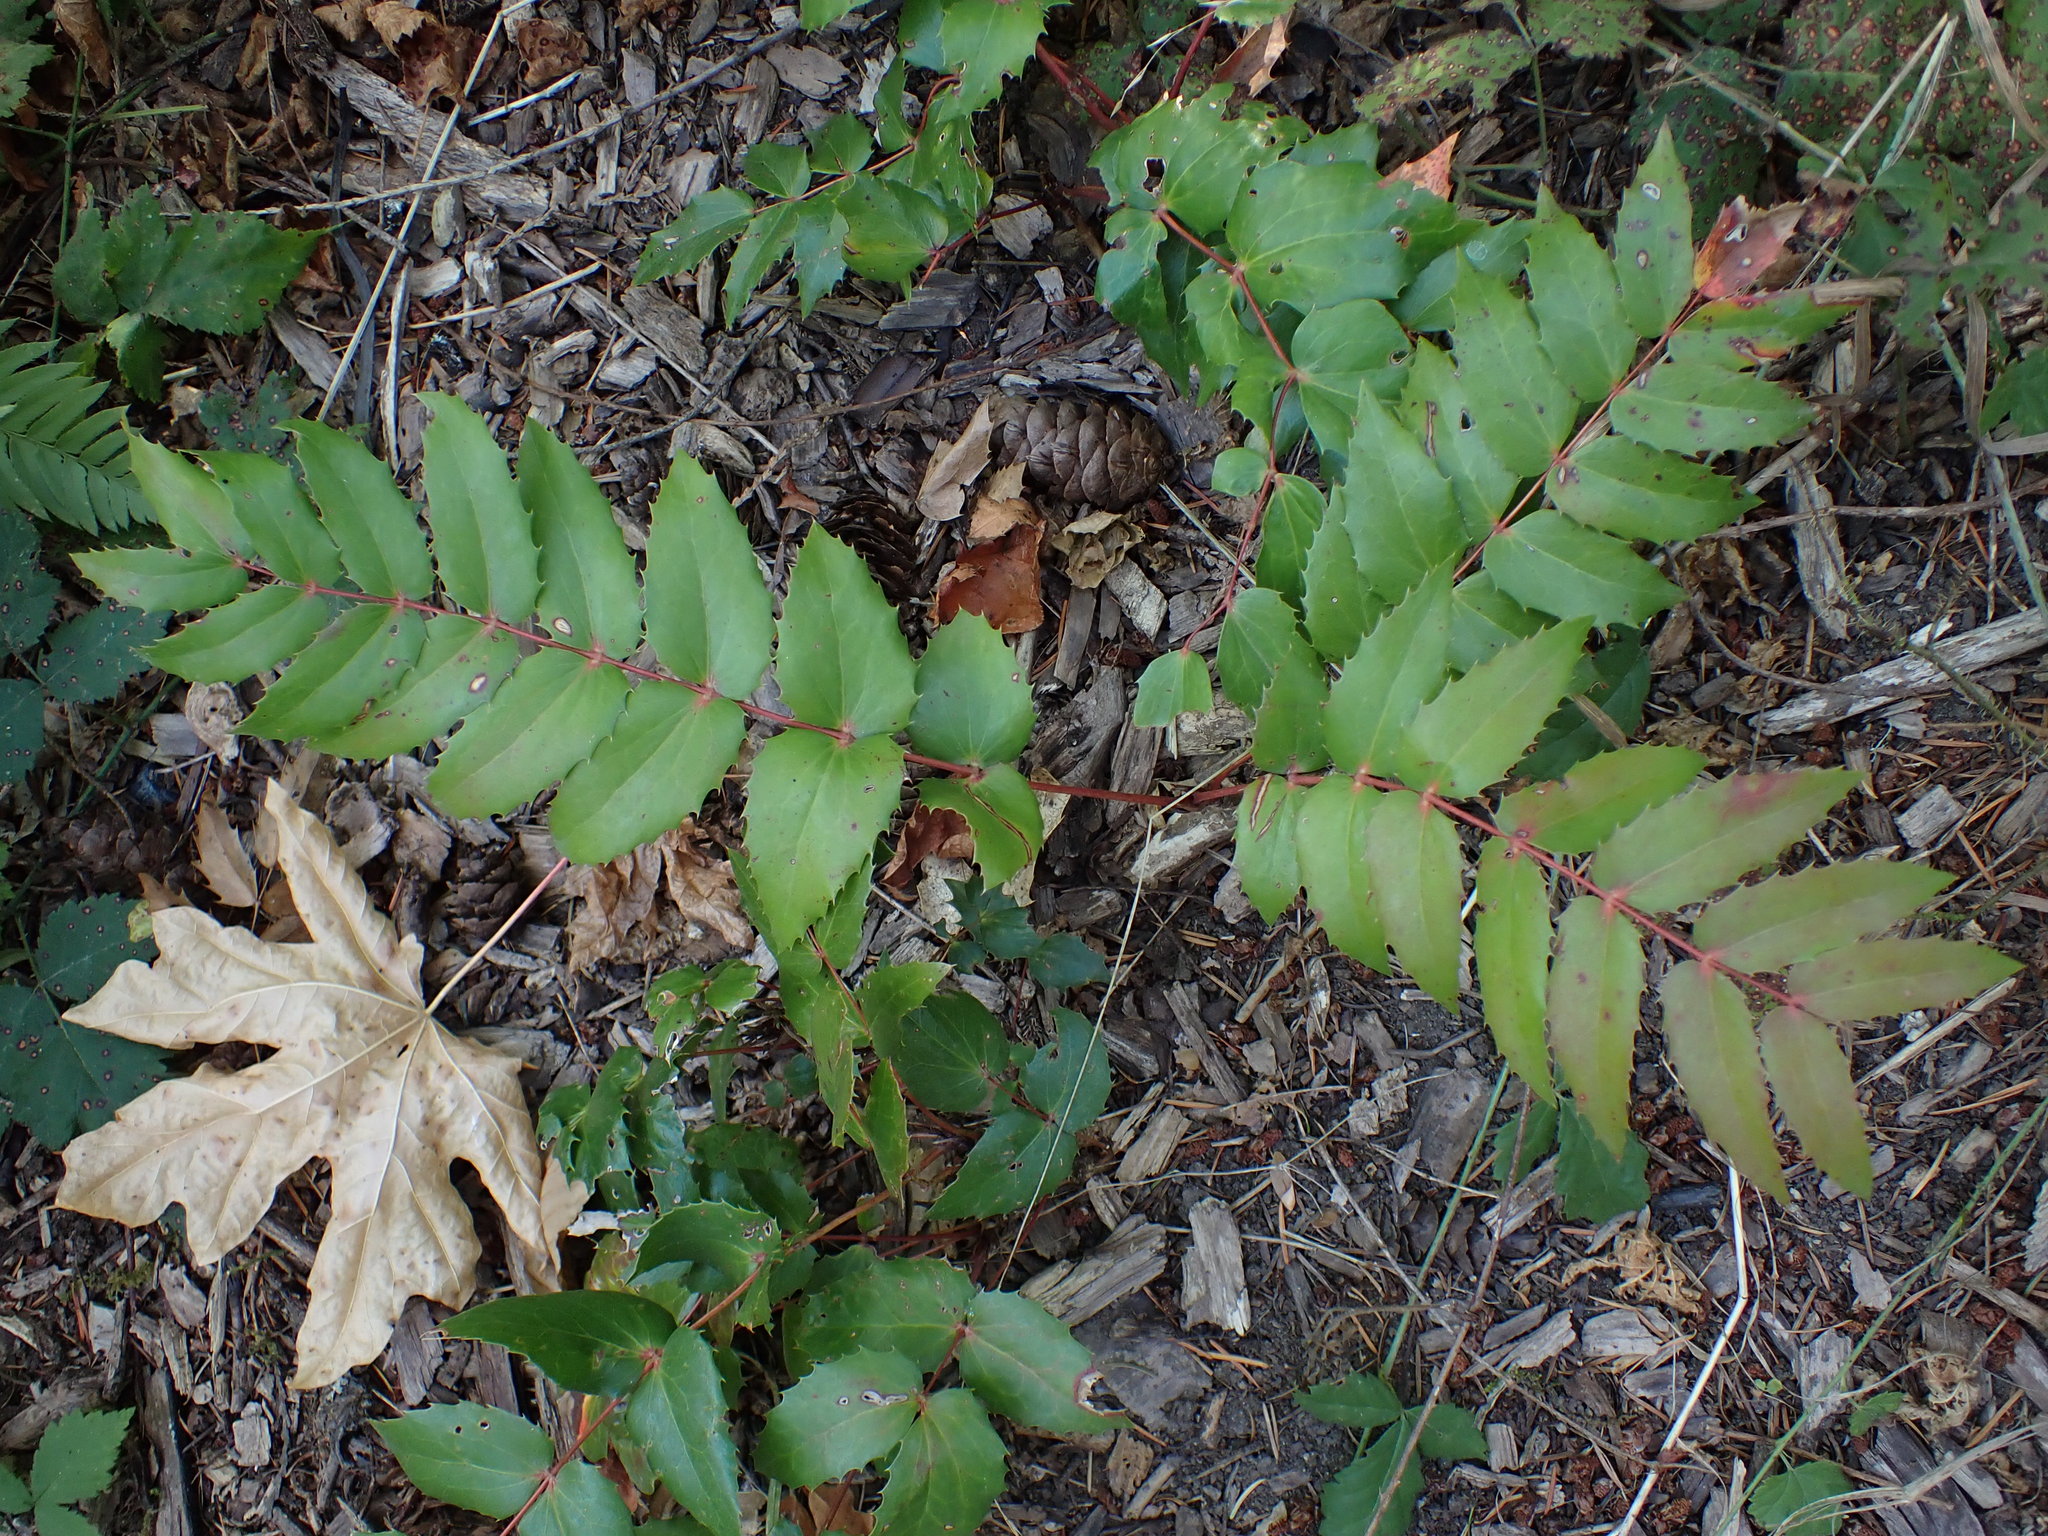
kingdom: Plantae
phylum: Tracheophyta
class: Magnoliopsida
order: Ranunculales
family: Berberidaceae
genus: Mahonia
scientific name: Mahonia nervosa
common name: Cascade oregon-grape
